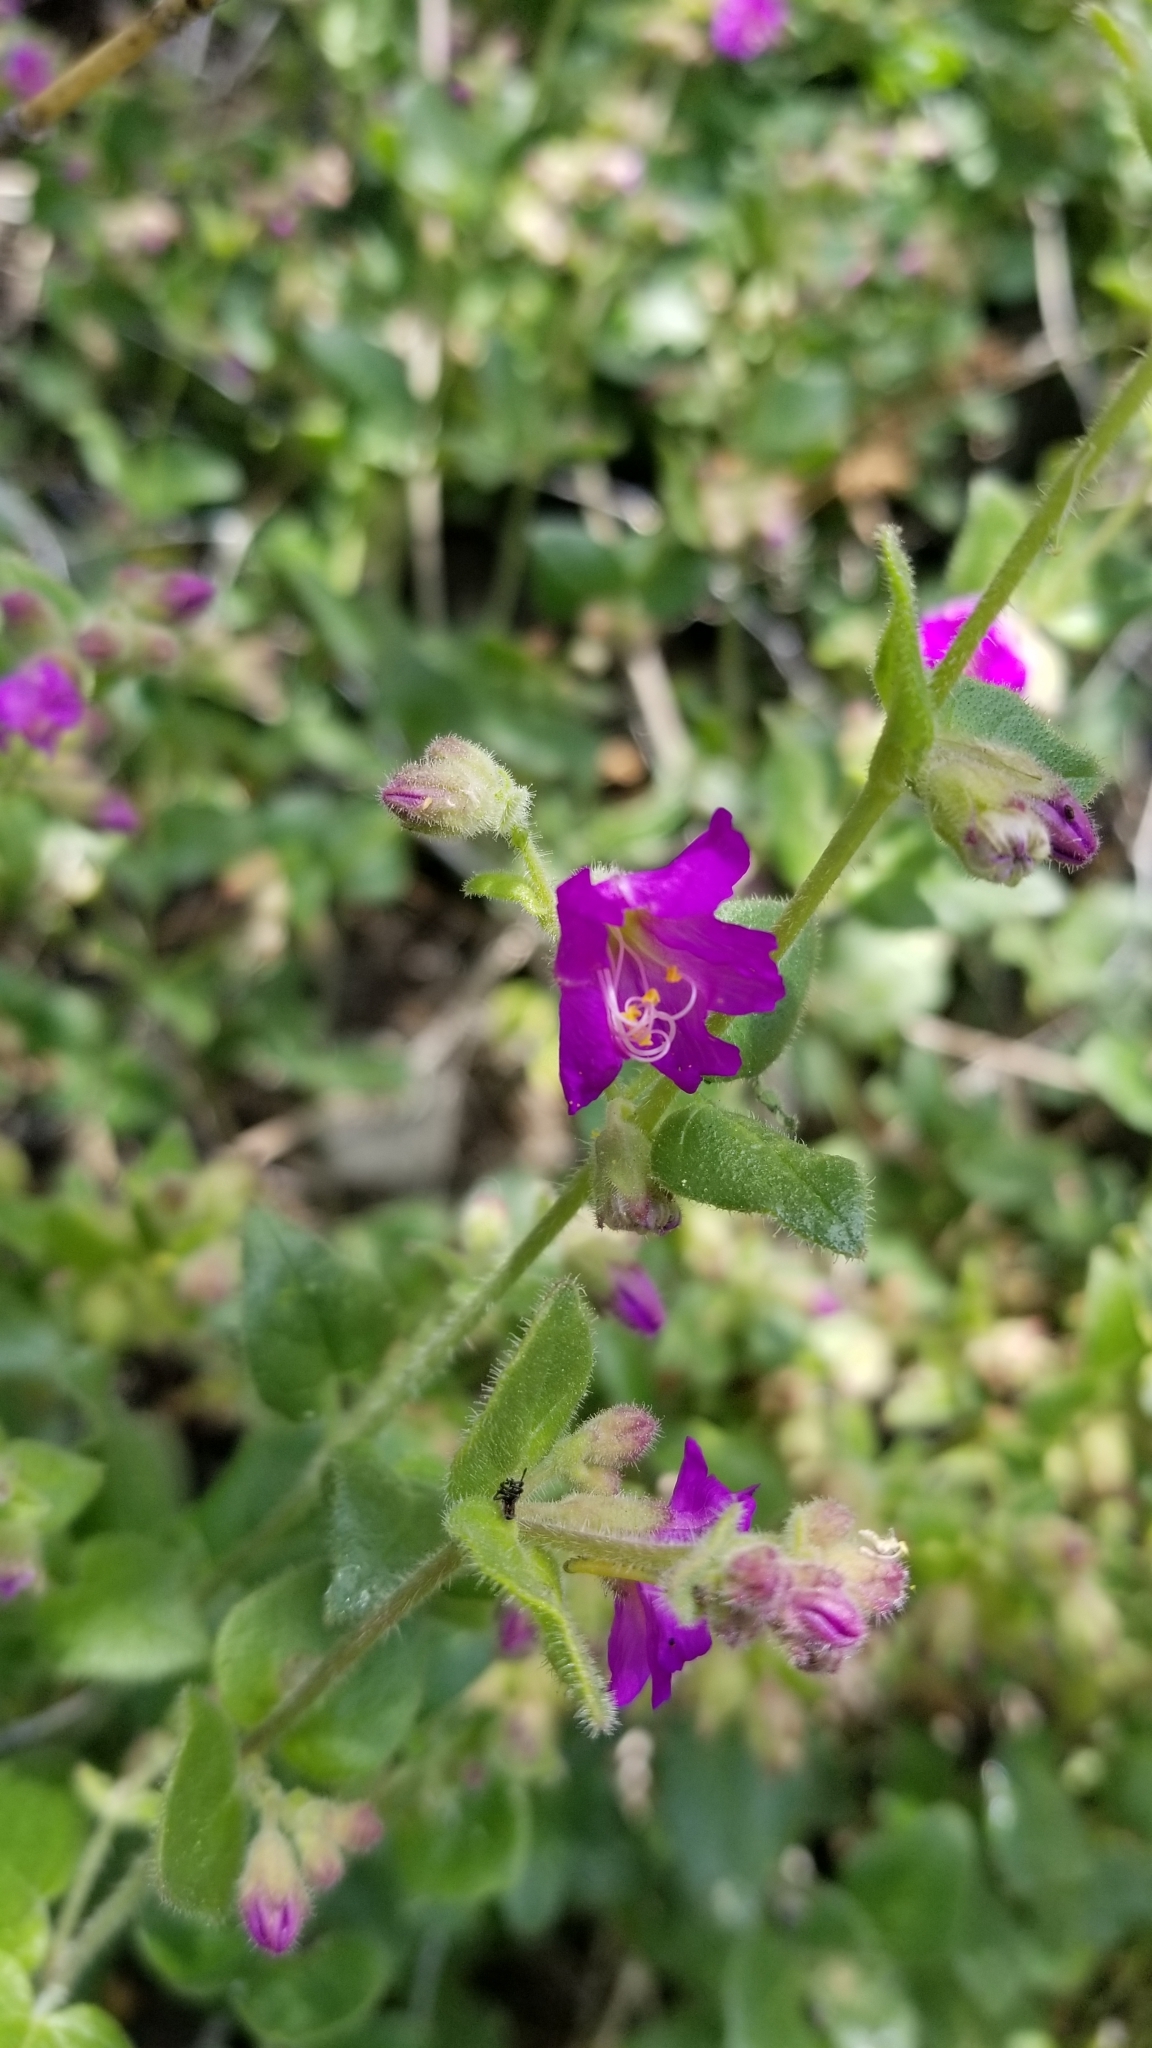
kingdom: Plantae
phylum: Tracheophyta
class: Magnoliopsida
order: Caryophyllales
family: Nyctaginaceae
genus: Mirabilis
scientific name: Mirabilis laevis
